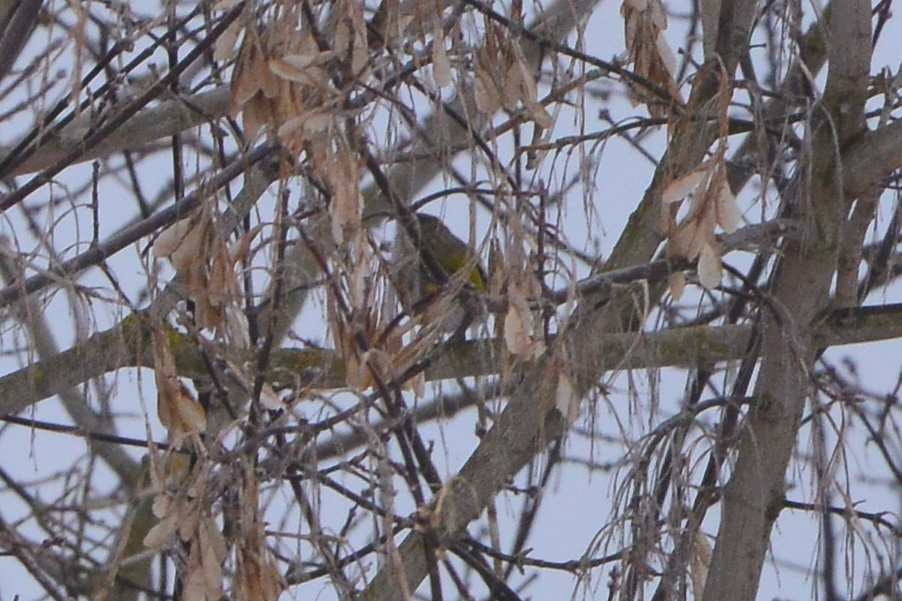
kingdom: Plantae
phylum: Tracheophyta
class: Liliopsida
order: Poales
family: Poaceae
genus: Chloris
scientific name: Chloris chloris
